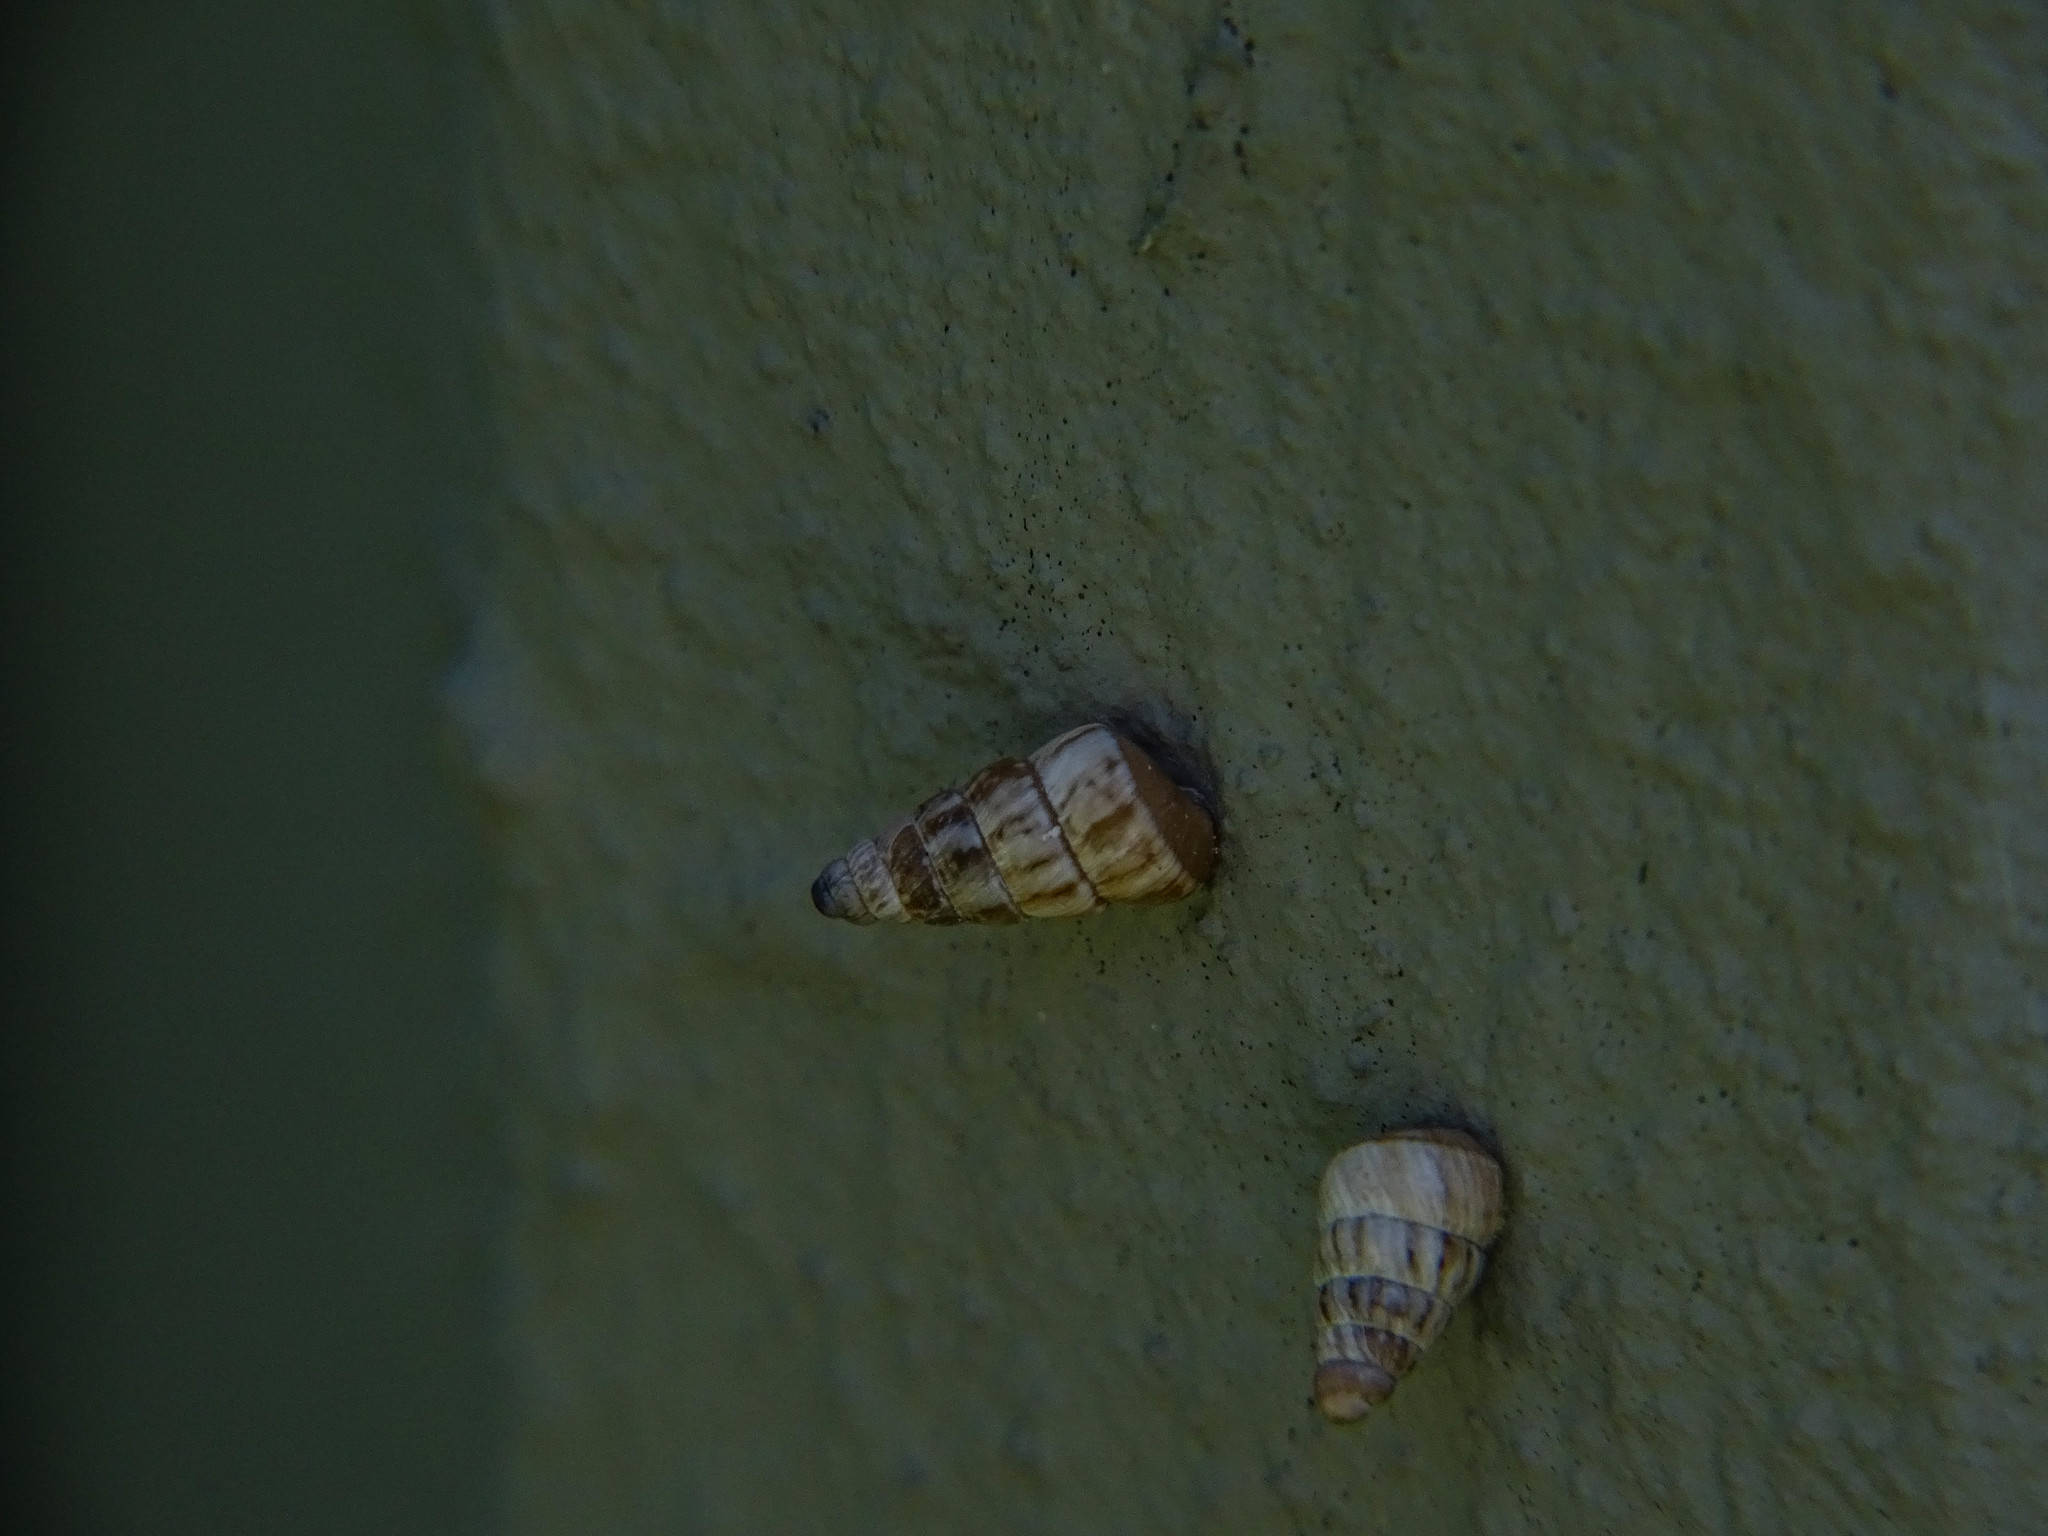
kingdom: Animalia
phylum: Mollusca
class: Gastropoda
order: Stylommatophora
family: Geomitridae
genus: Cochlicella
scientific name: Cochlicella barbara
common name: Potbellied helicellid
